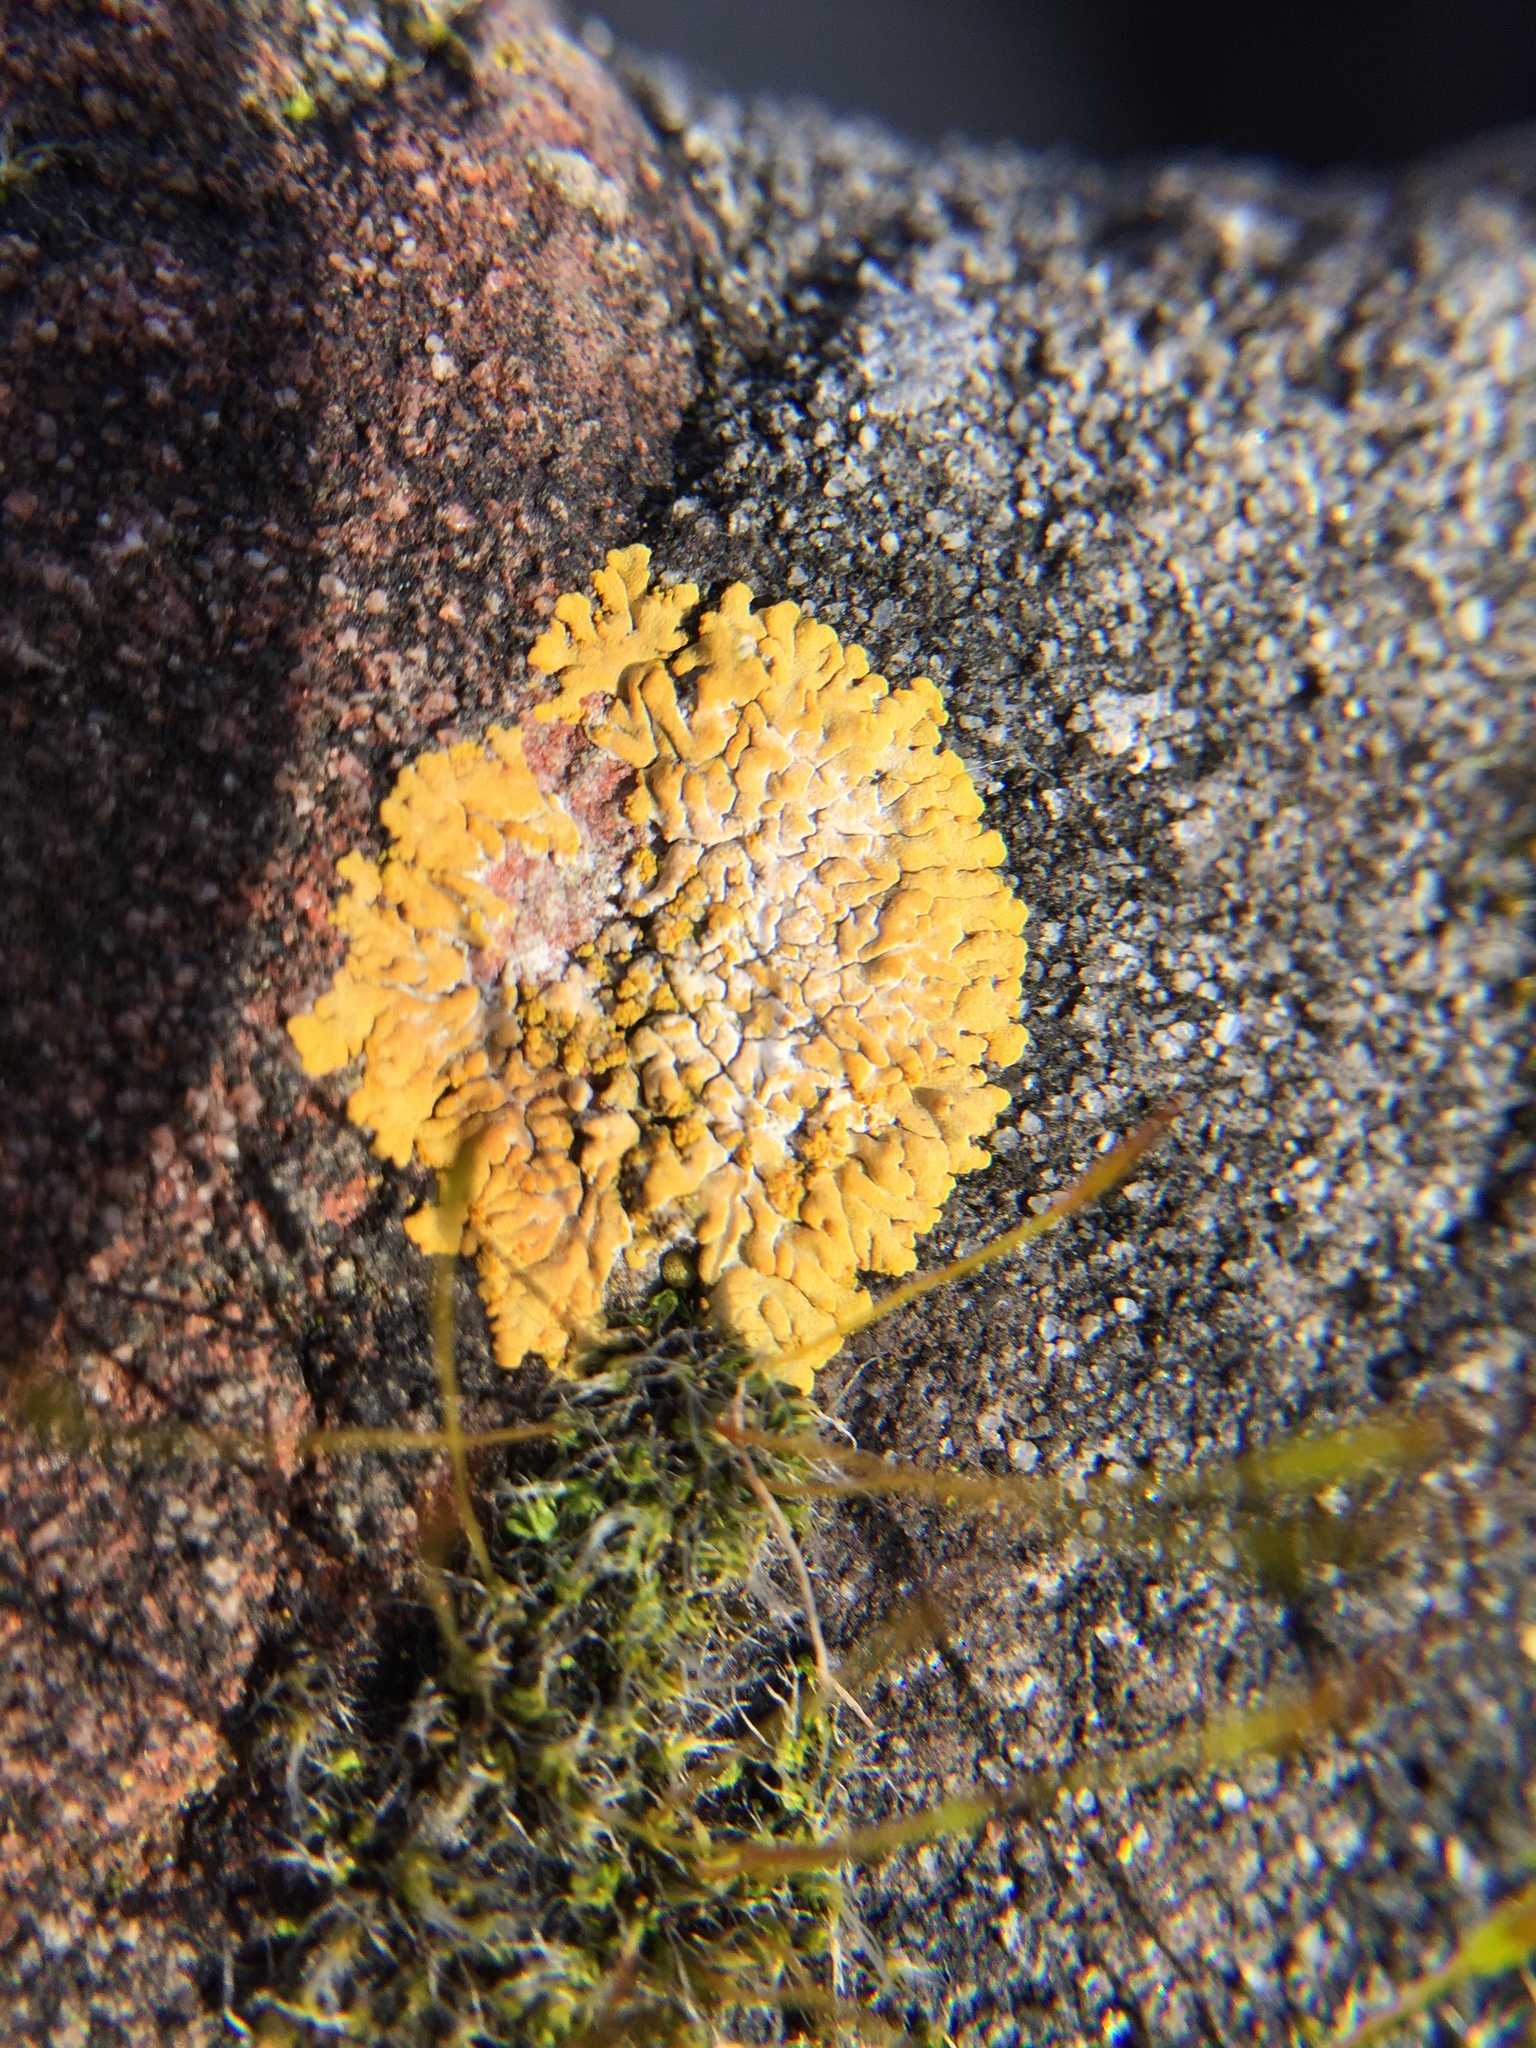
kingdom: Fungi
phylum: Ascomycota
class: Lecanoromycetes
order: Teloschistales
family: Teloschistaceae
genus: Calogaya
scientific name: Calogaya decipiens
